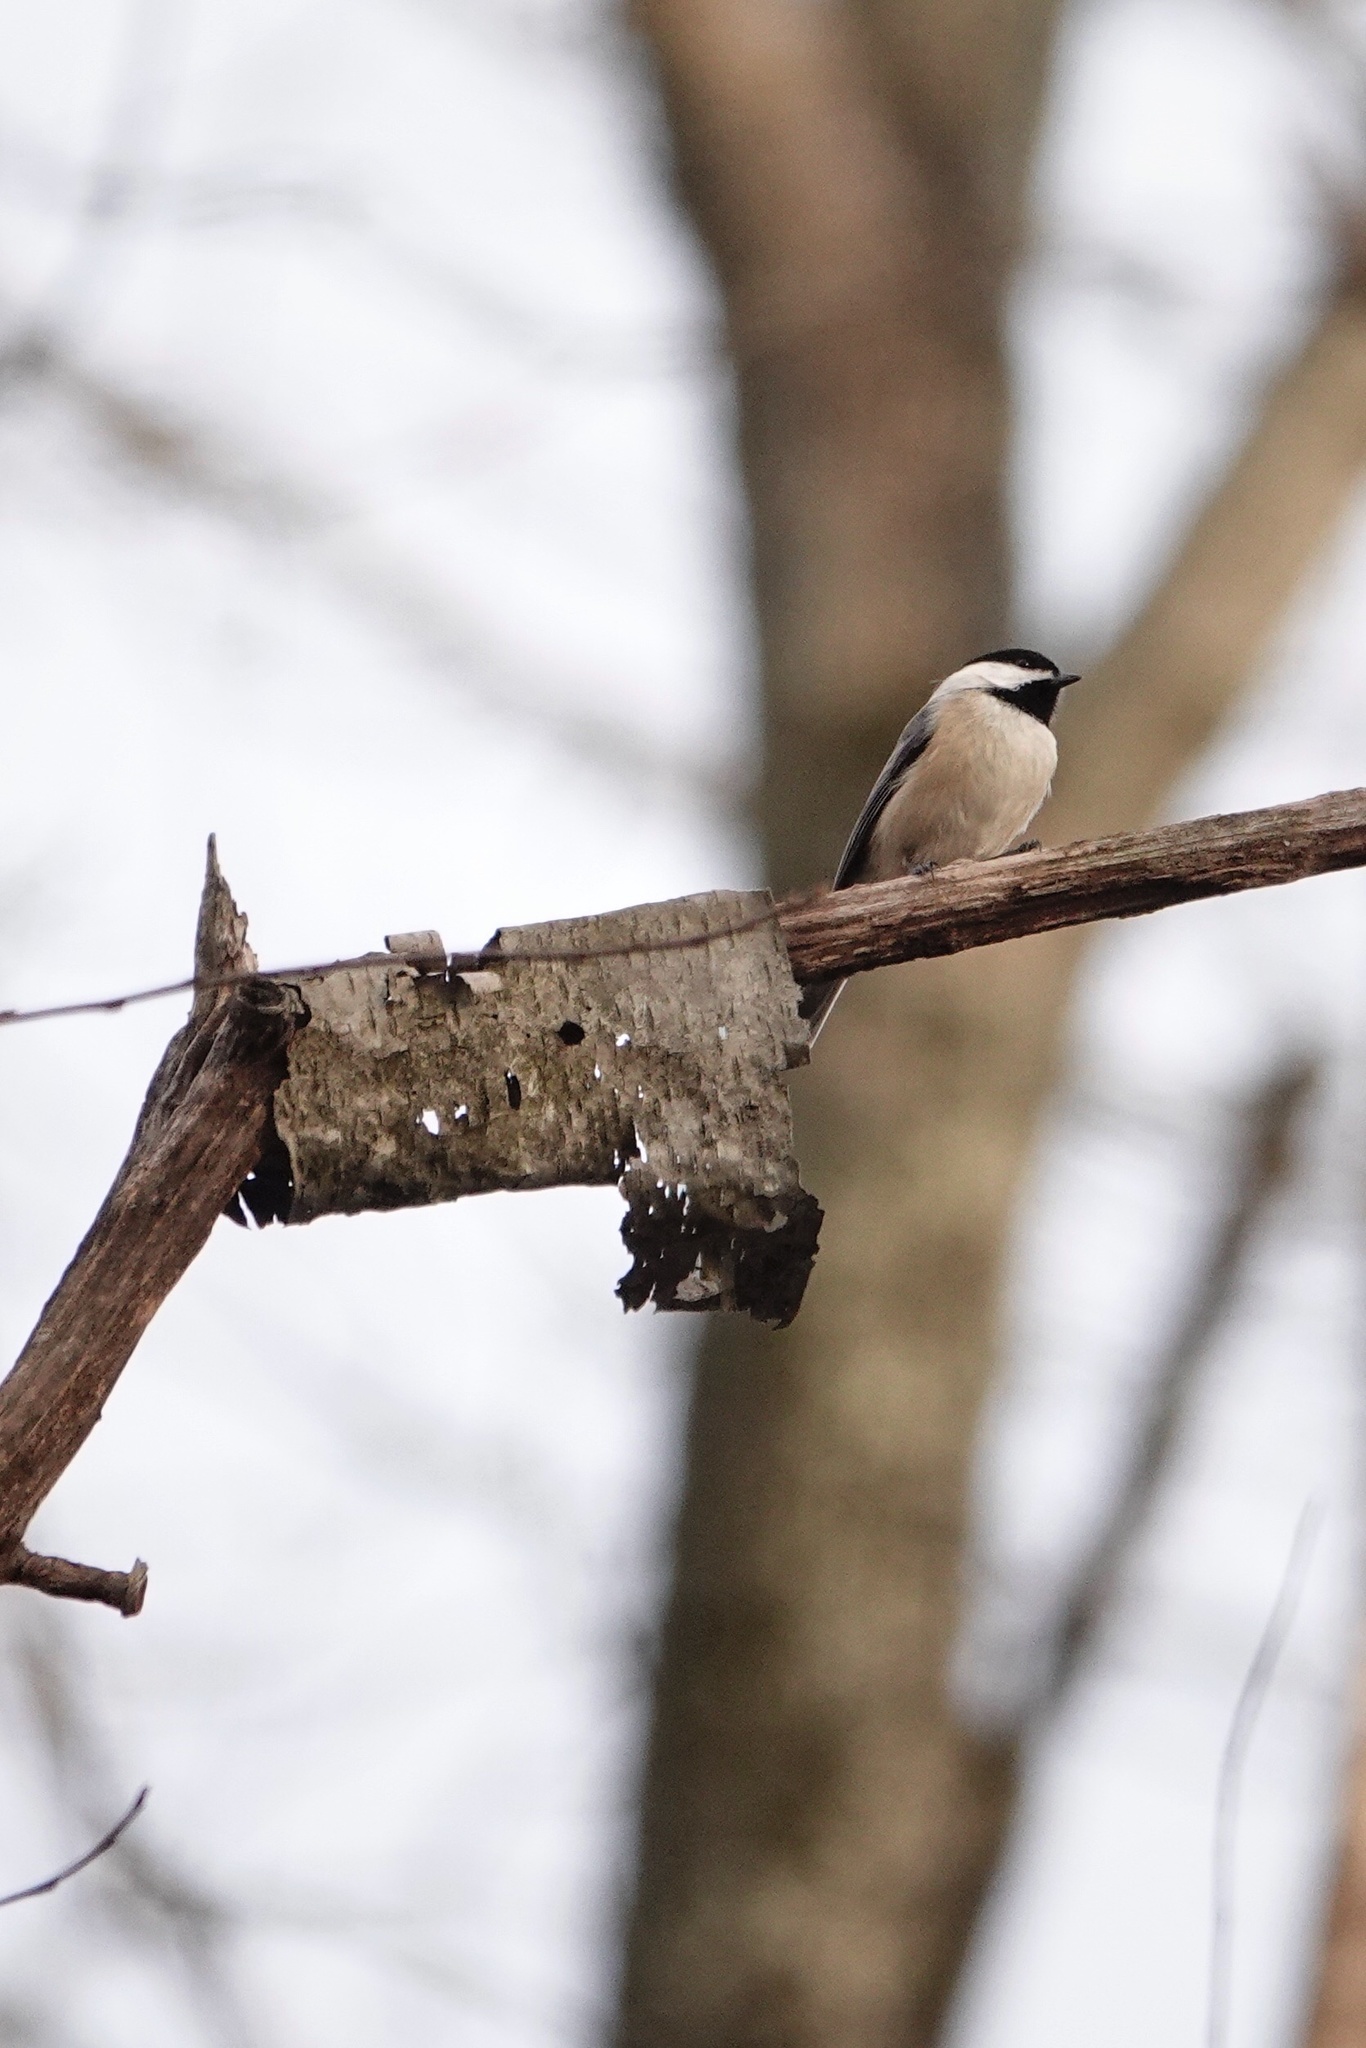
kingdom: Animalia
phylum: Chordata
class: Aves
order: Passeriformes
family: Paridae
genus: Poecile
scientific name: Poecile atricapillus
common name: Black-capped chickadee
